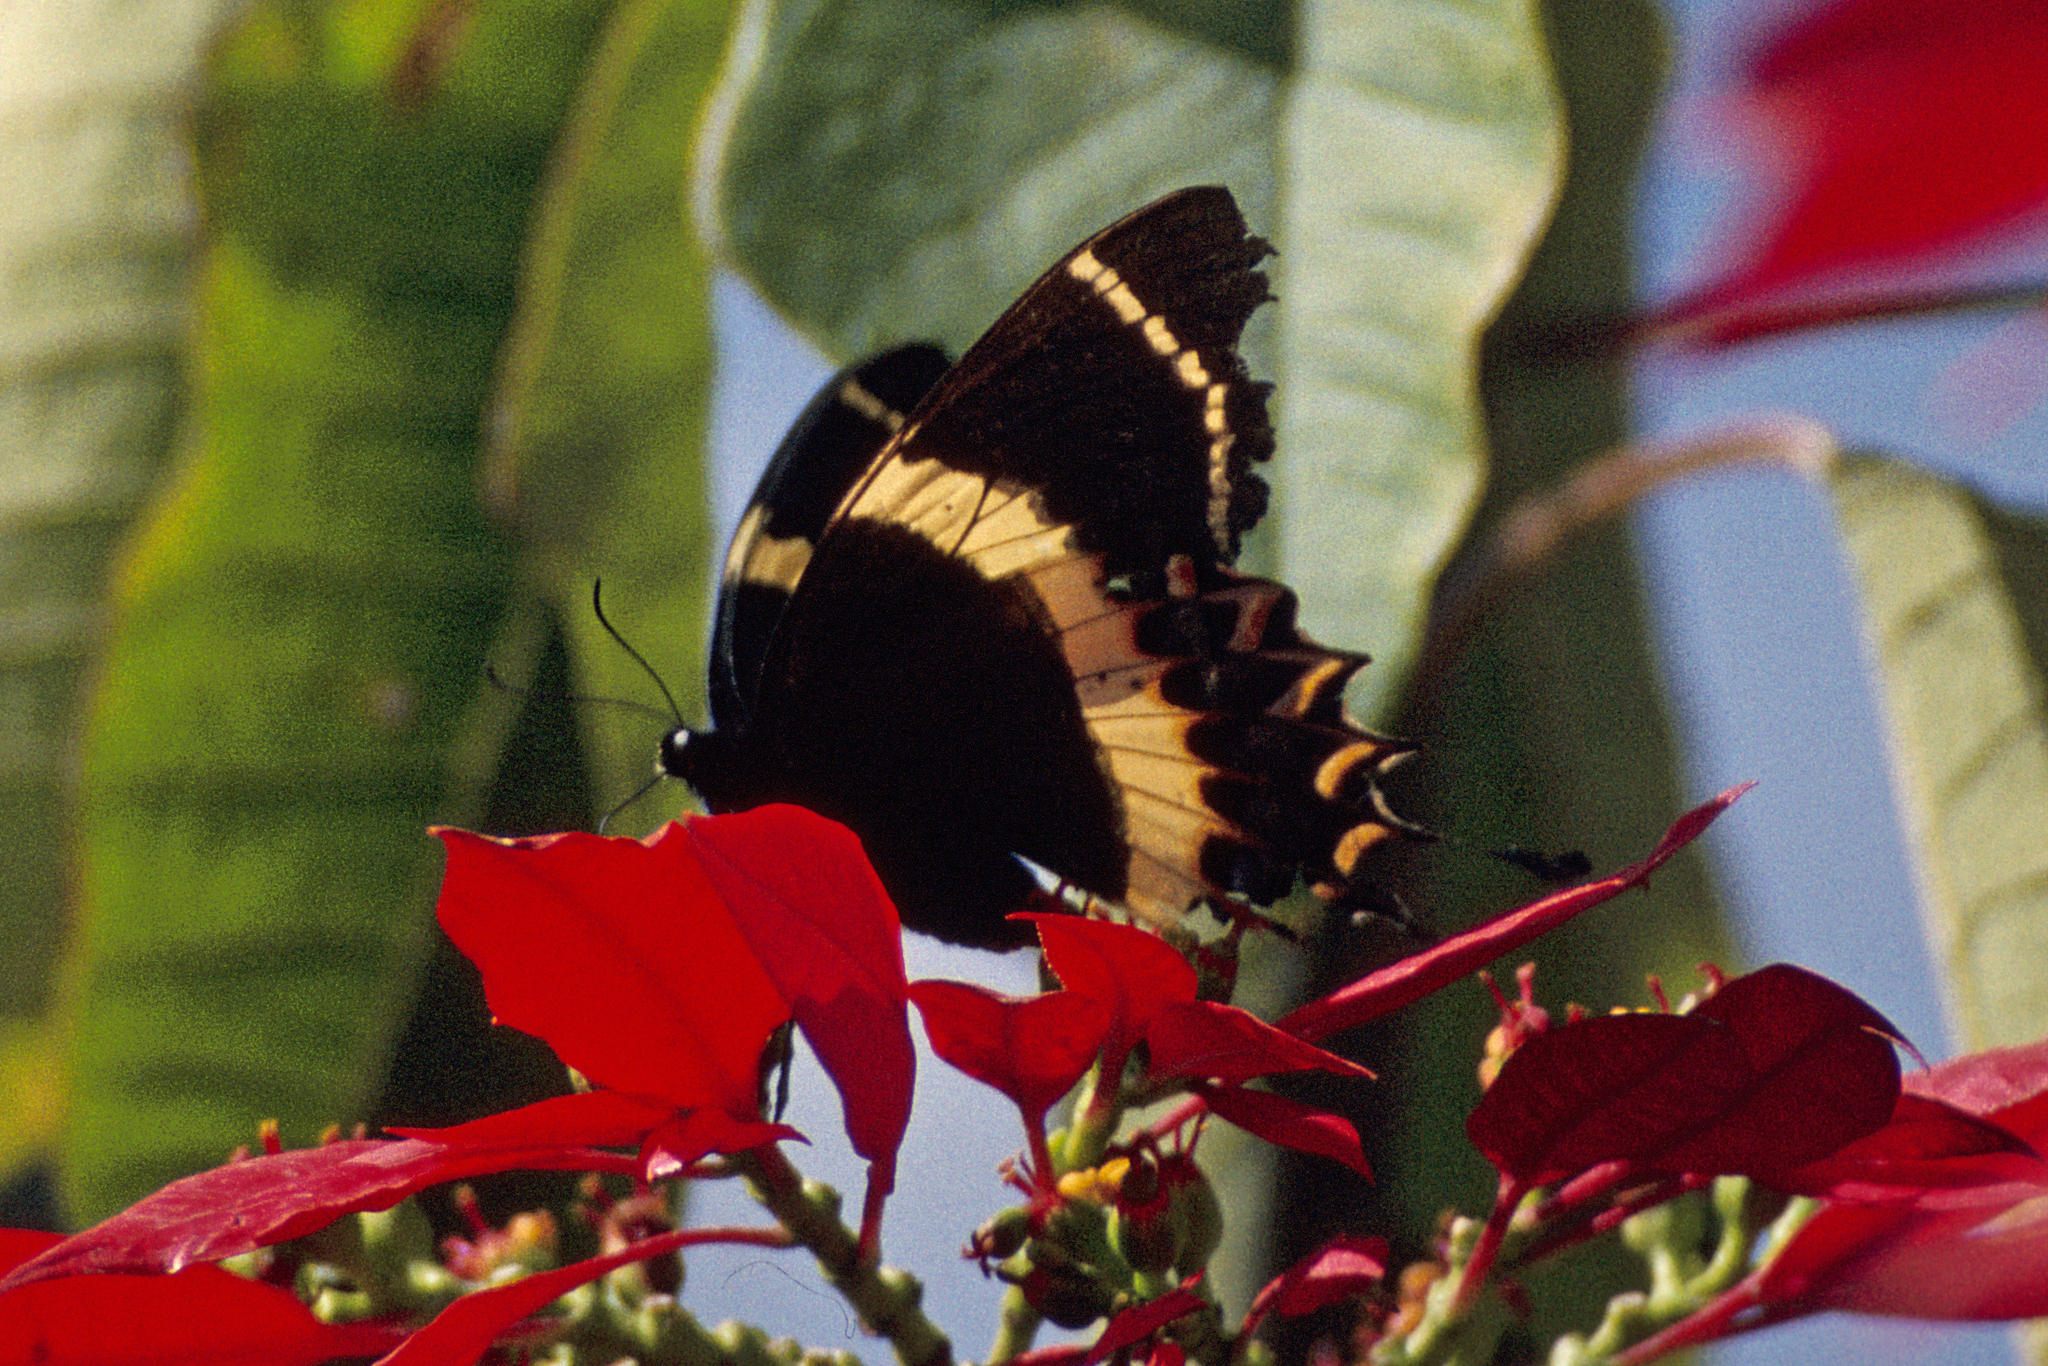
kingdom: Animalia
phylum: Arthropoda
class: Insecta
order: Lepidoptera
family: Papilionidae
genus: Papilio
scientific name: Papilio garamas
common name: Magnificent swallowtail
